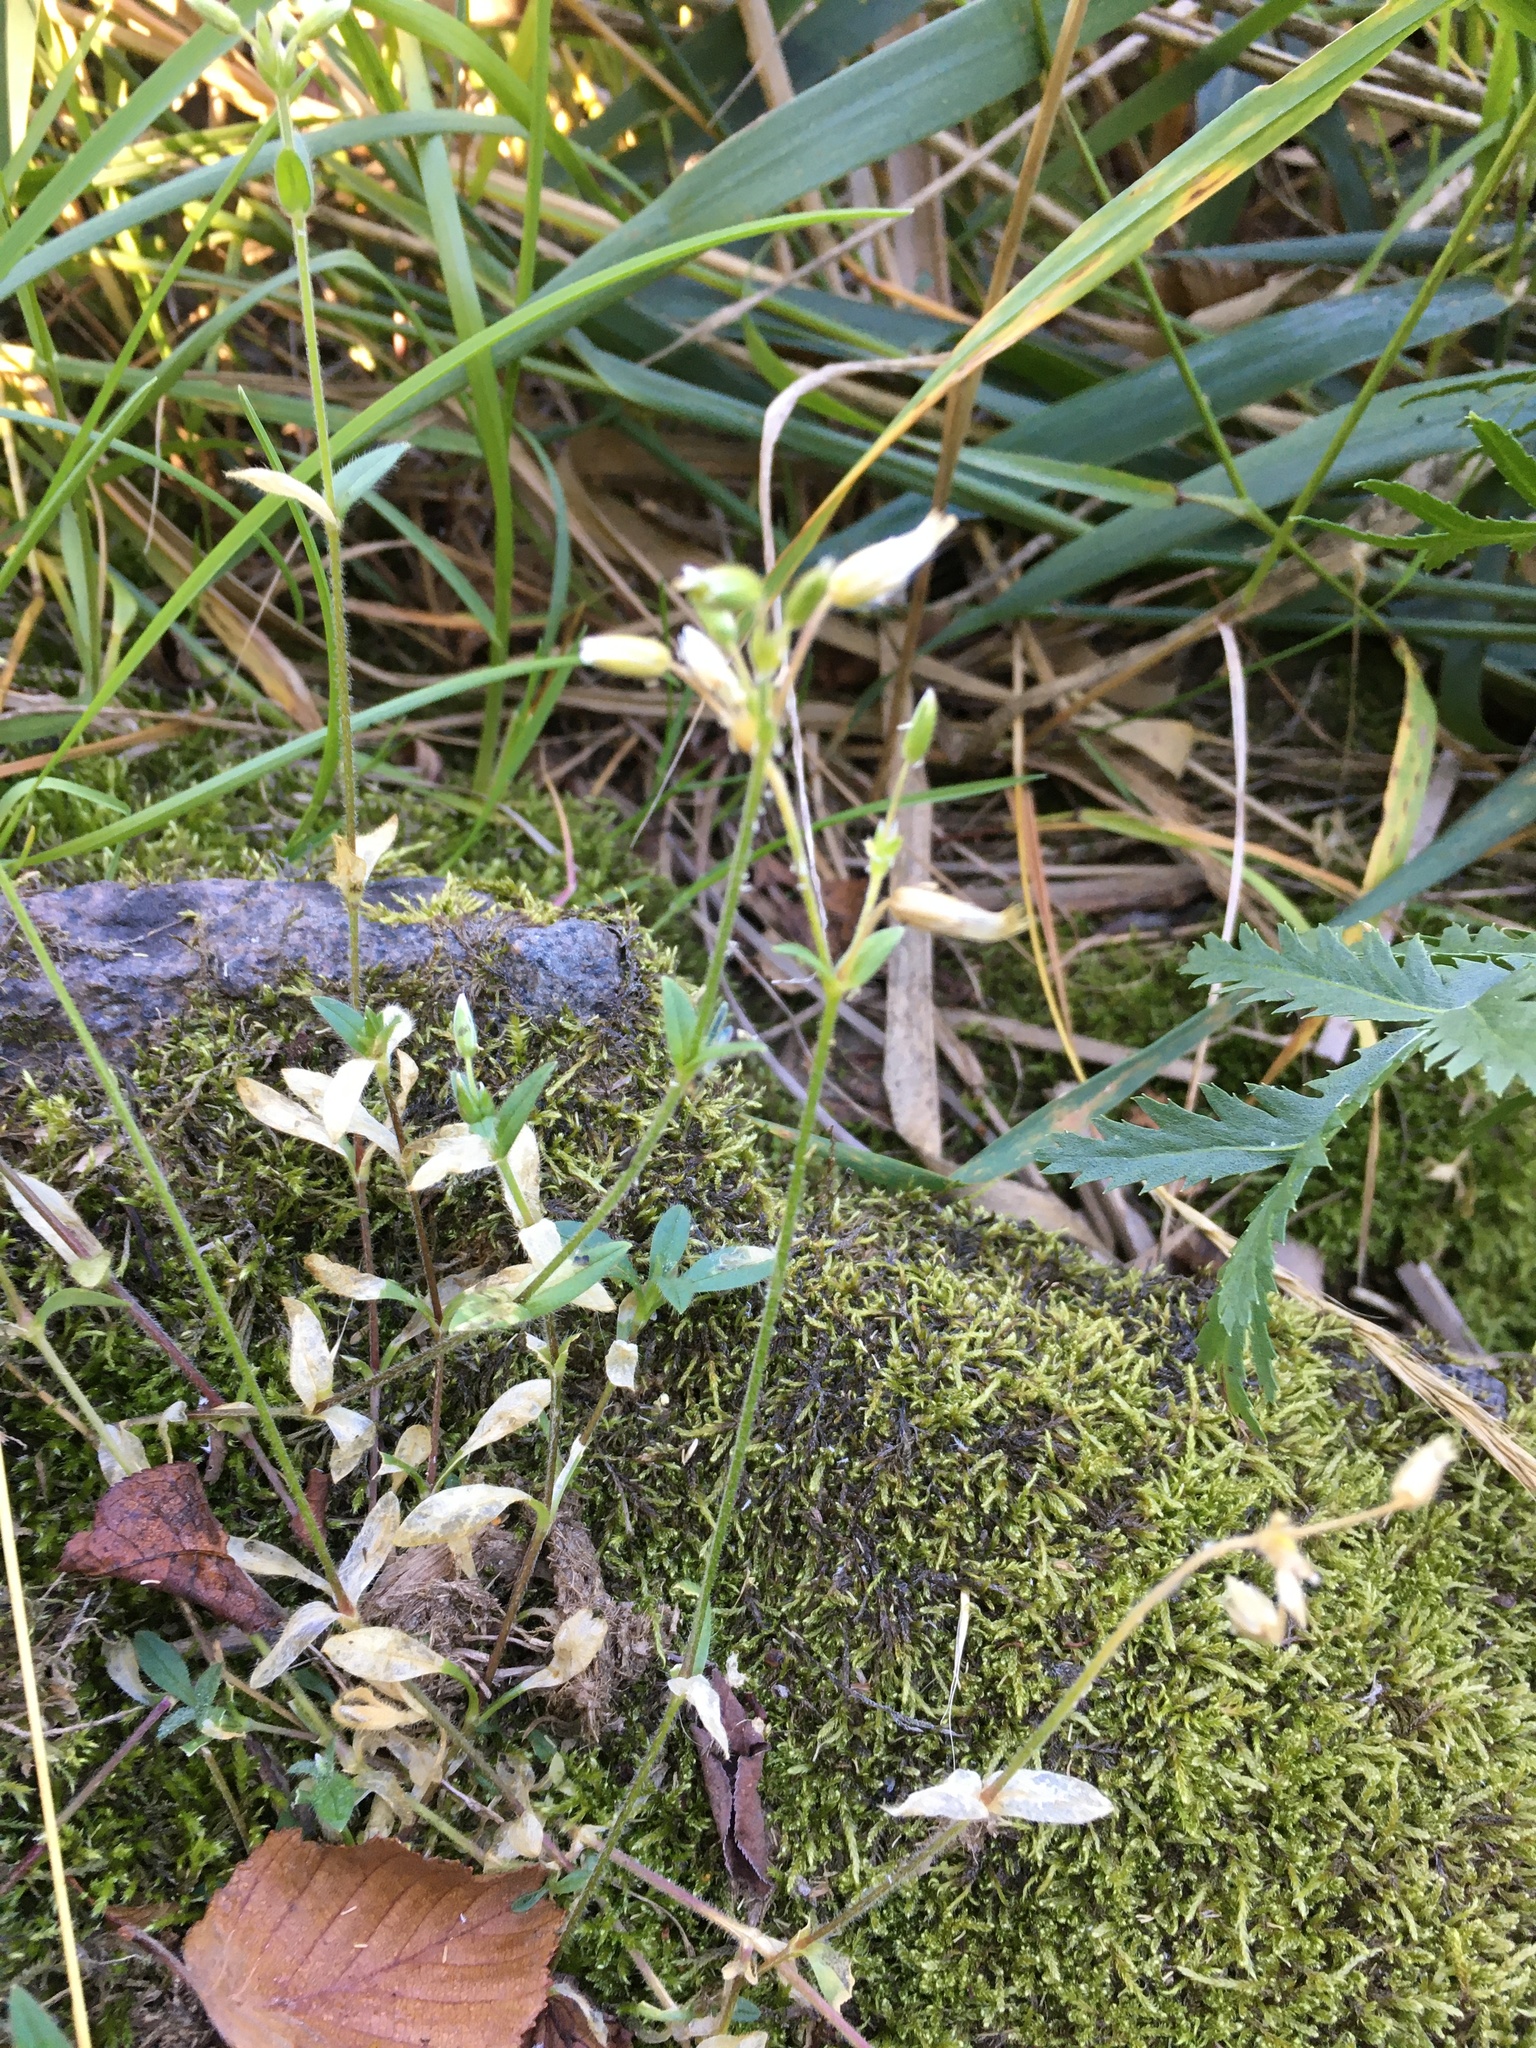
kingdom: Plantae
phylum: Tracheophyta
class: Magnoliopsida
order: Caryophyllales
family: Caryophyllaceae
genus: Cerastium
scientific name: Cerastium holosteoides
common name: Big chickweed
